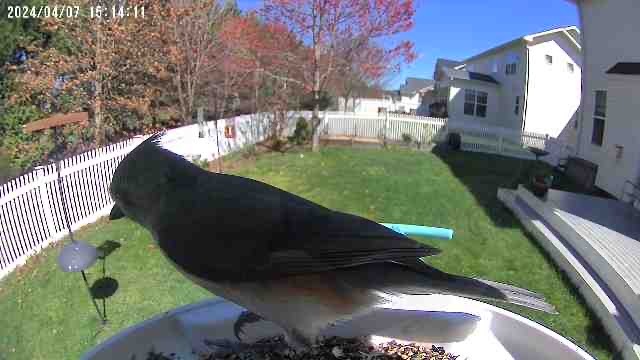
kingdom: Animalia
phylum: Chordata
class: Aves
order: Passeriformes
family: Paridae
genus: Baeolophus
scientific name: Baeolophus bicolor
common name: Tufted titmouse
